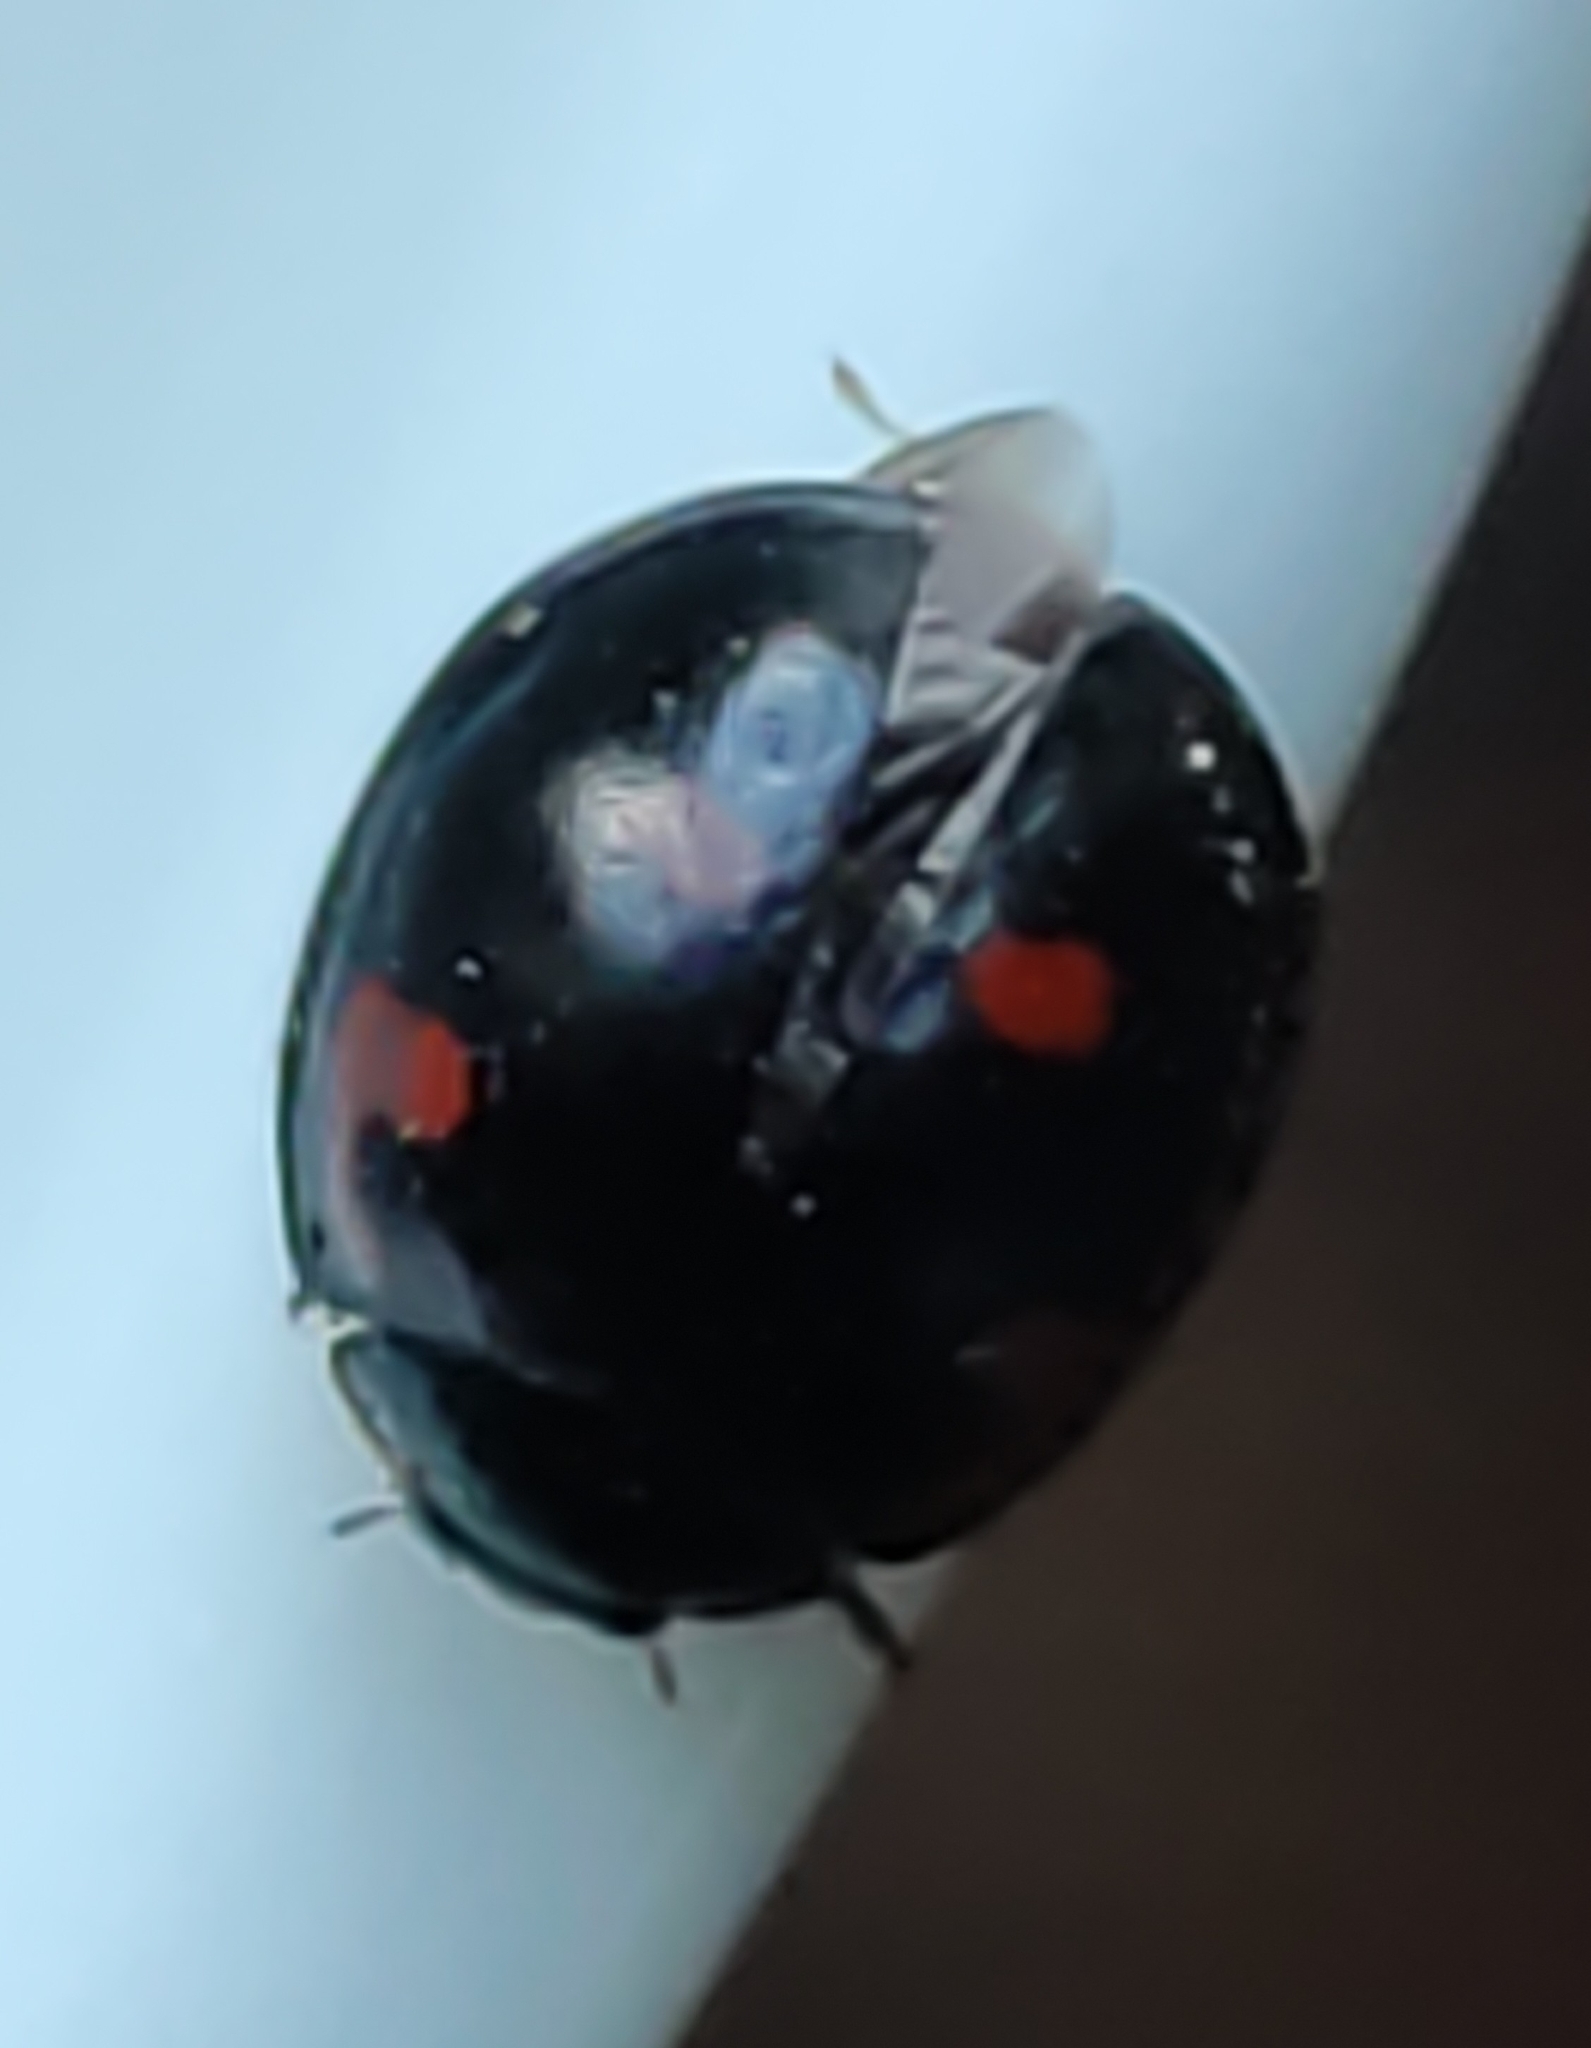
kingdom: Animalia
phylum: Arthropoda
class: Insecta
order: Coleoptera
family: Coccinellidae
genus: Brumus
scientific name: Brumus quadripustulatus
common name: Ladybird beetle
